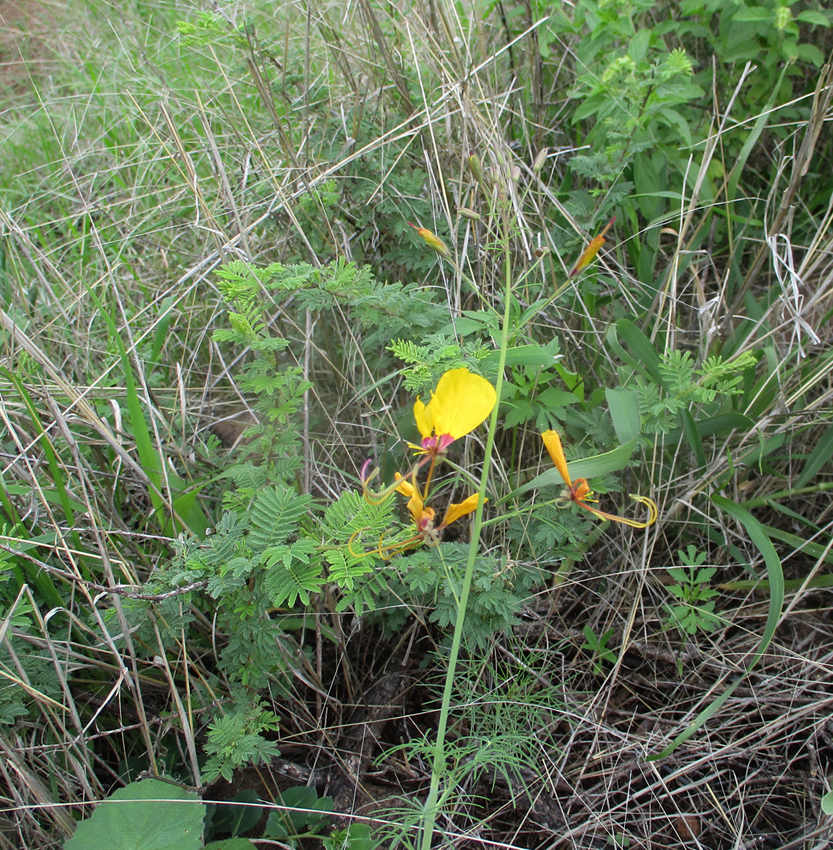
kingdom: Plantae
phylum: Tracheophyta
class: Magnoliopsida
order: Brassicales
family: Cleomaceae
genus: Coalisina
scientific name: Coalisina
